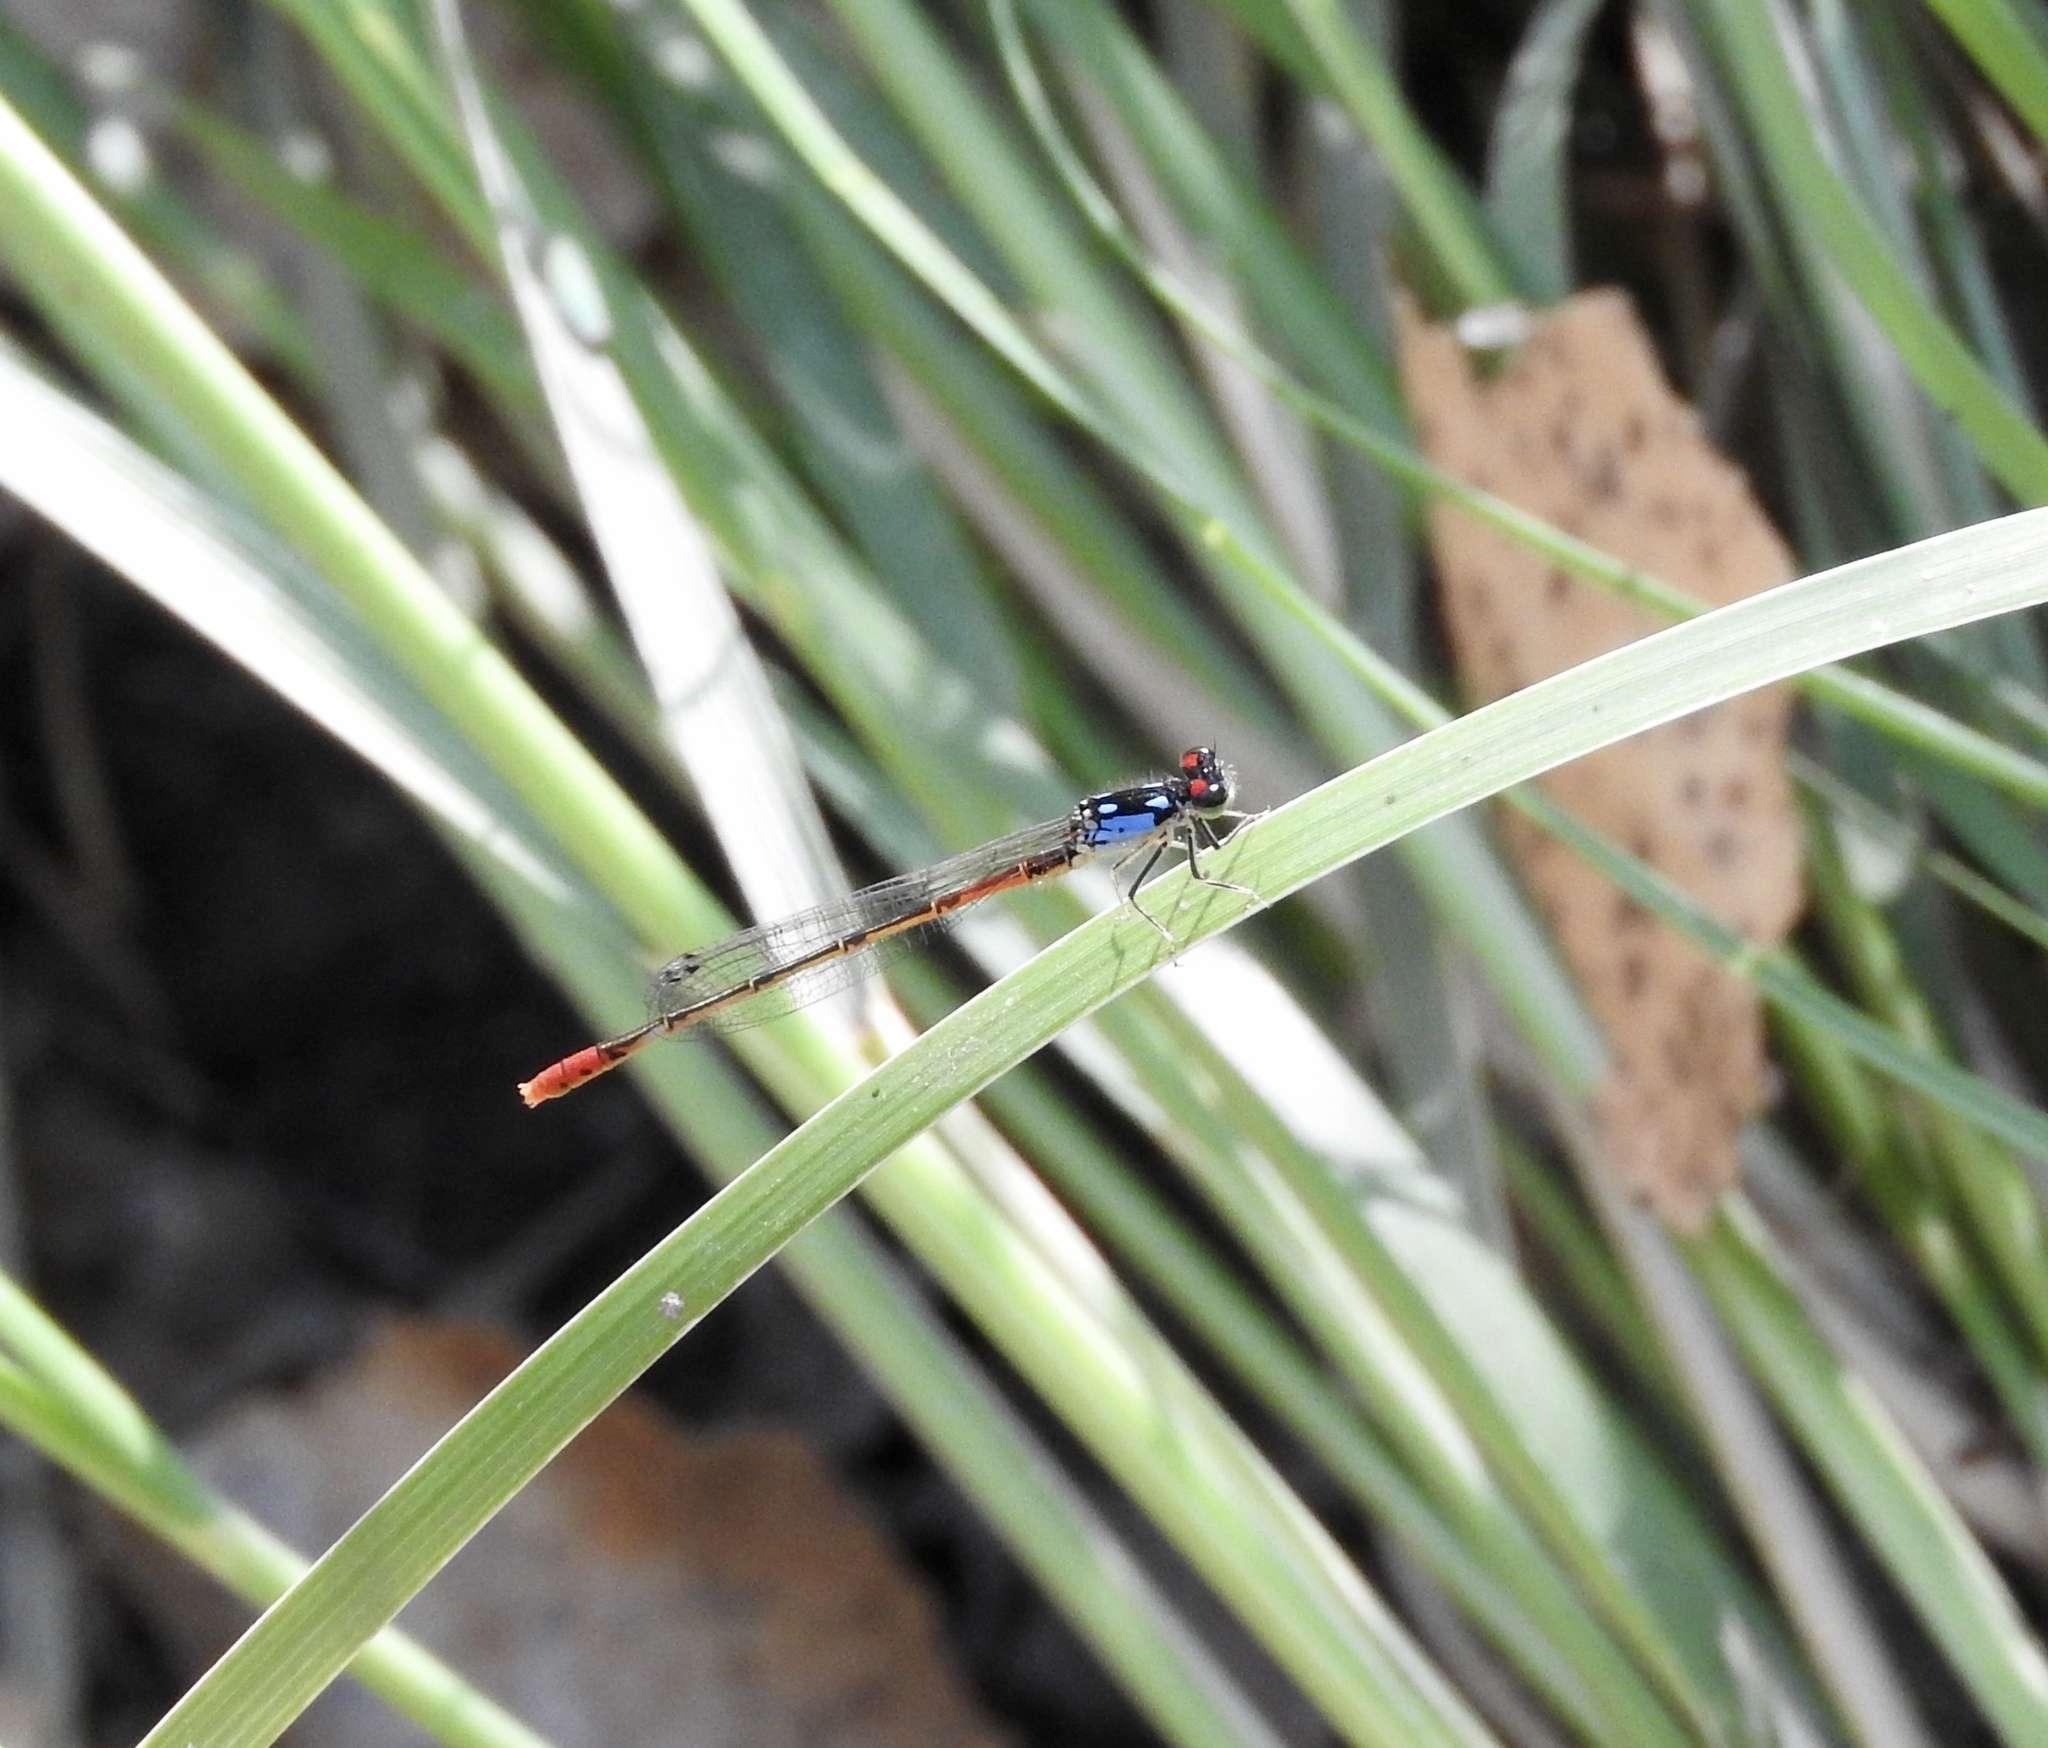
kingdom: Animalia
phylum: Arthropoda
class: Insecta
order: Odonata
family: Coenagrionidae
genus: Hesperagrion
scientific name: Hesperagrion heterodoxum
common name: Painted damsel
